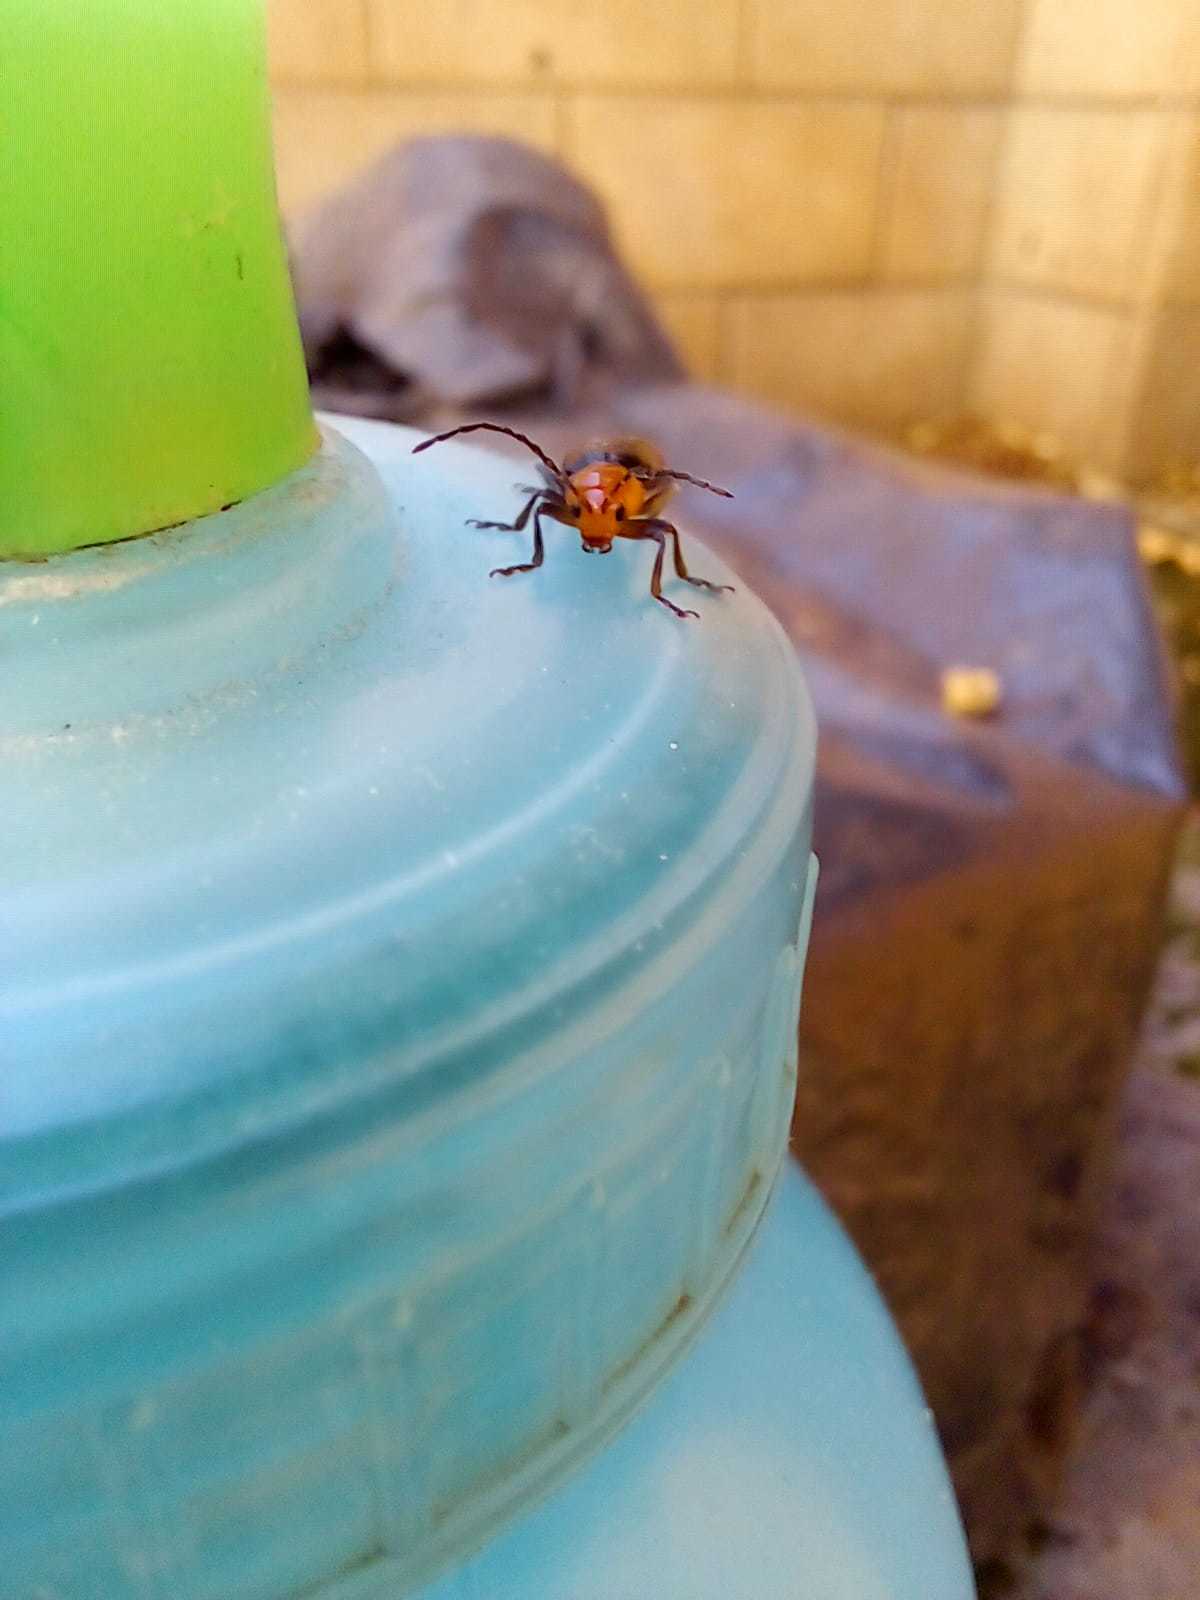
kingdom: Animalia
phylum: Arthropoda
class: Insecta
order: Coleoptera
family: Chrysomelidae
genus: Cacoscelis
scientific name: Cacoscelis
